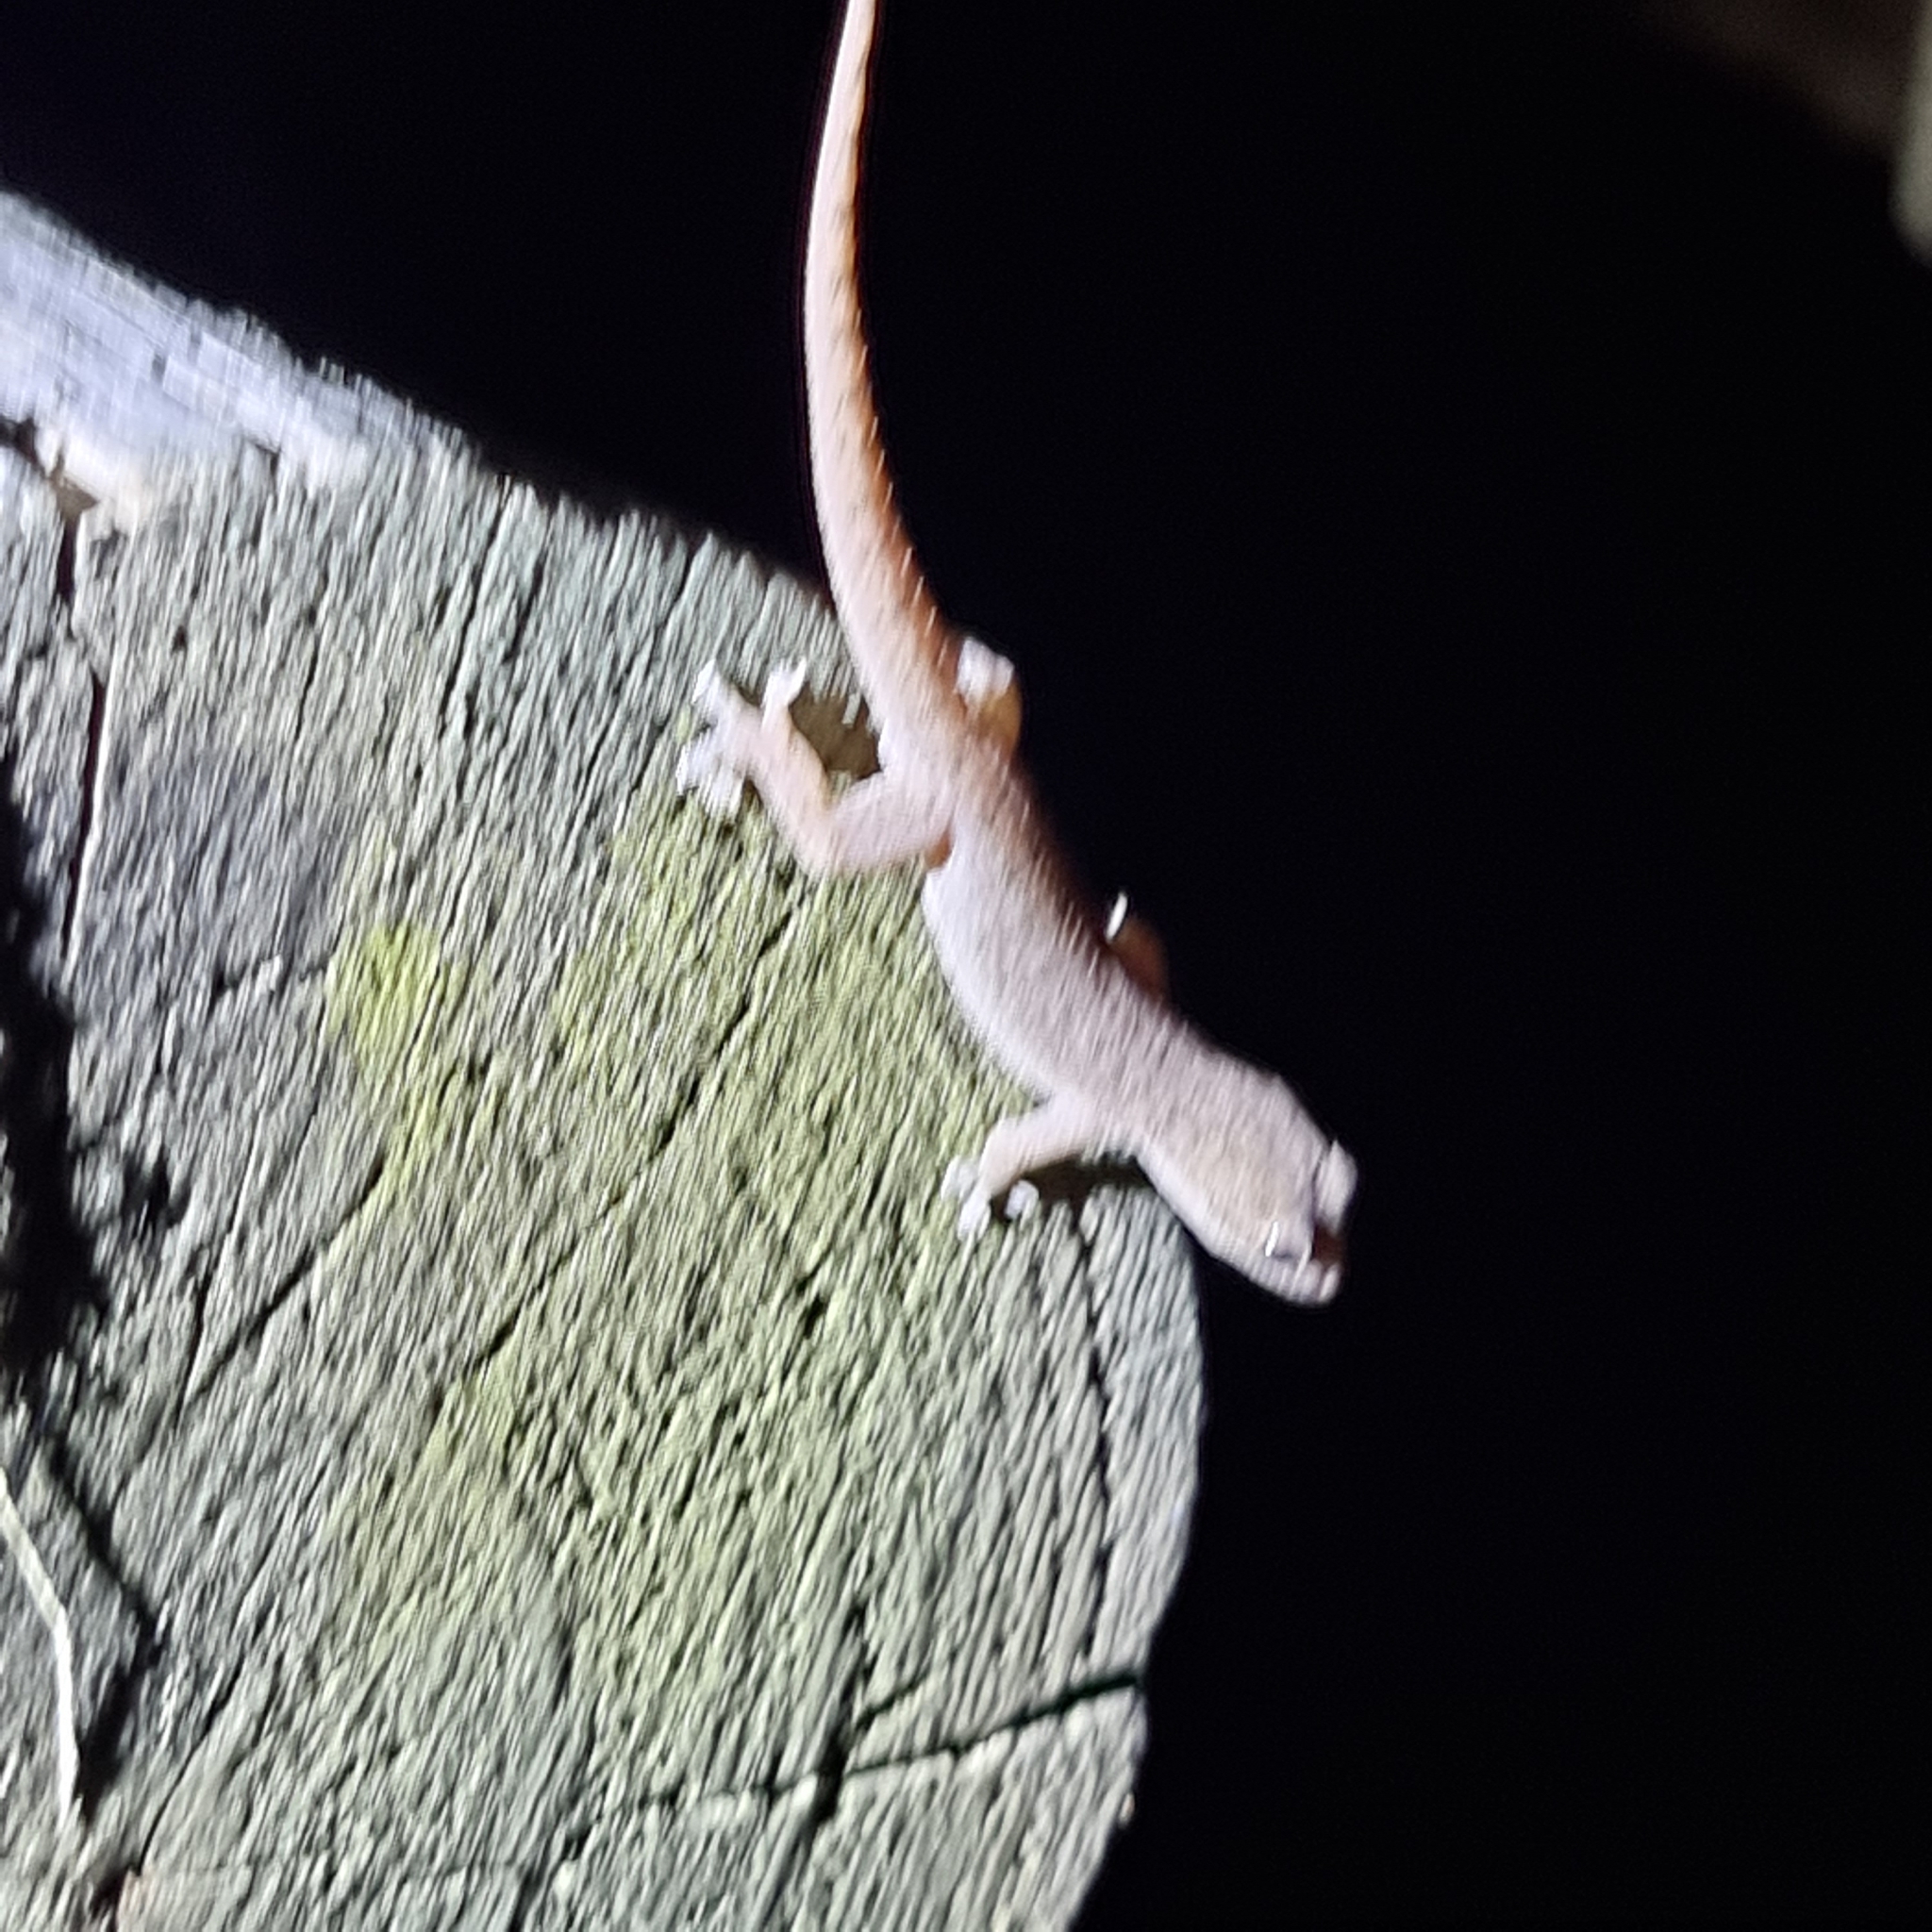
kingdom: Animalia
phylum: Chordata
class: Squamata
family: Gekkonidae
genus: Hemidactylus
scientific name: Hemidactylus frenatus
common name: Common house gecko
